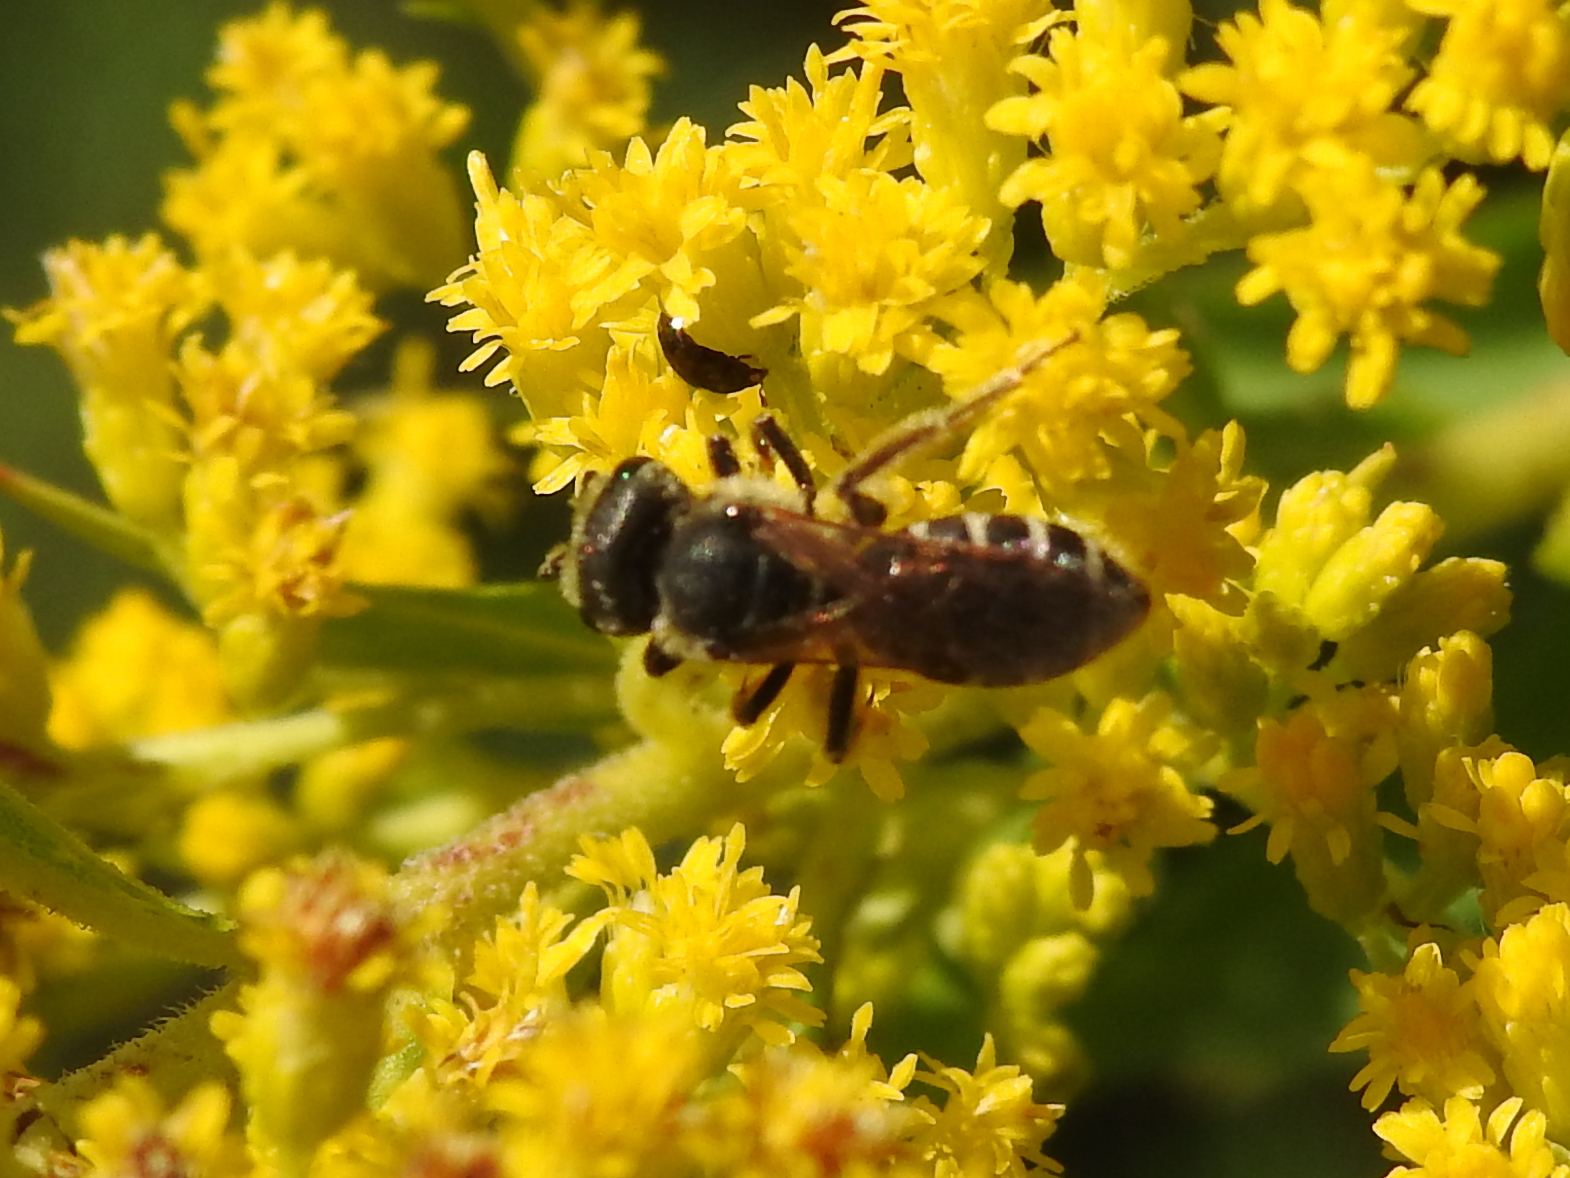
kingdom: Animalia
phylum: Arthropoda
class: Insecta
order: Hymenoptera
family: Halictidae
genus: Halictus
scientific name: Halictus ligatus
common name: Ligated furrow bee
